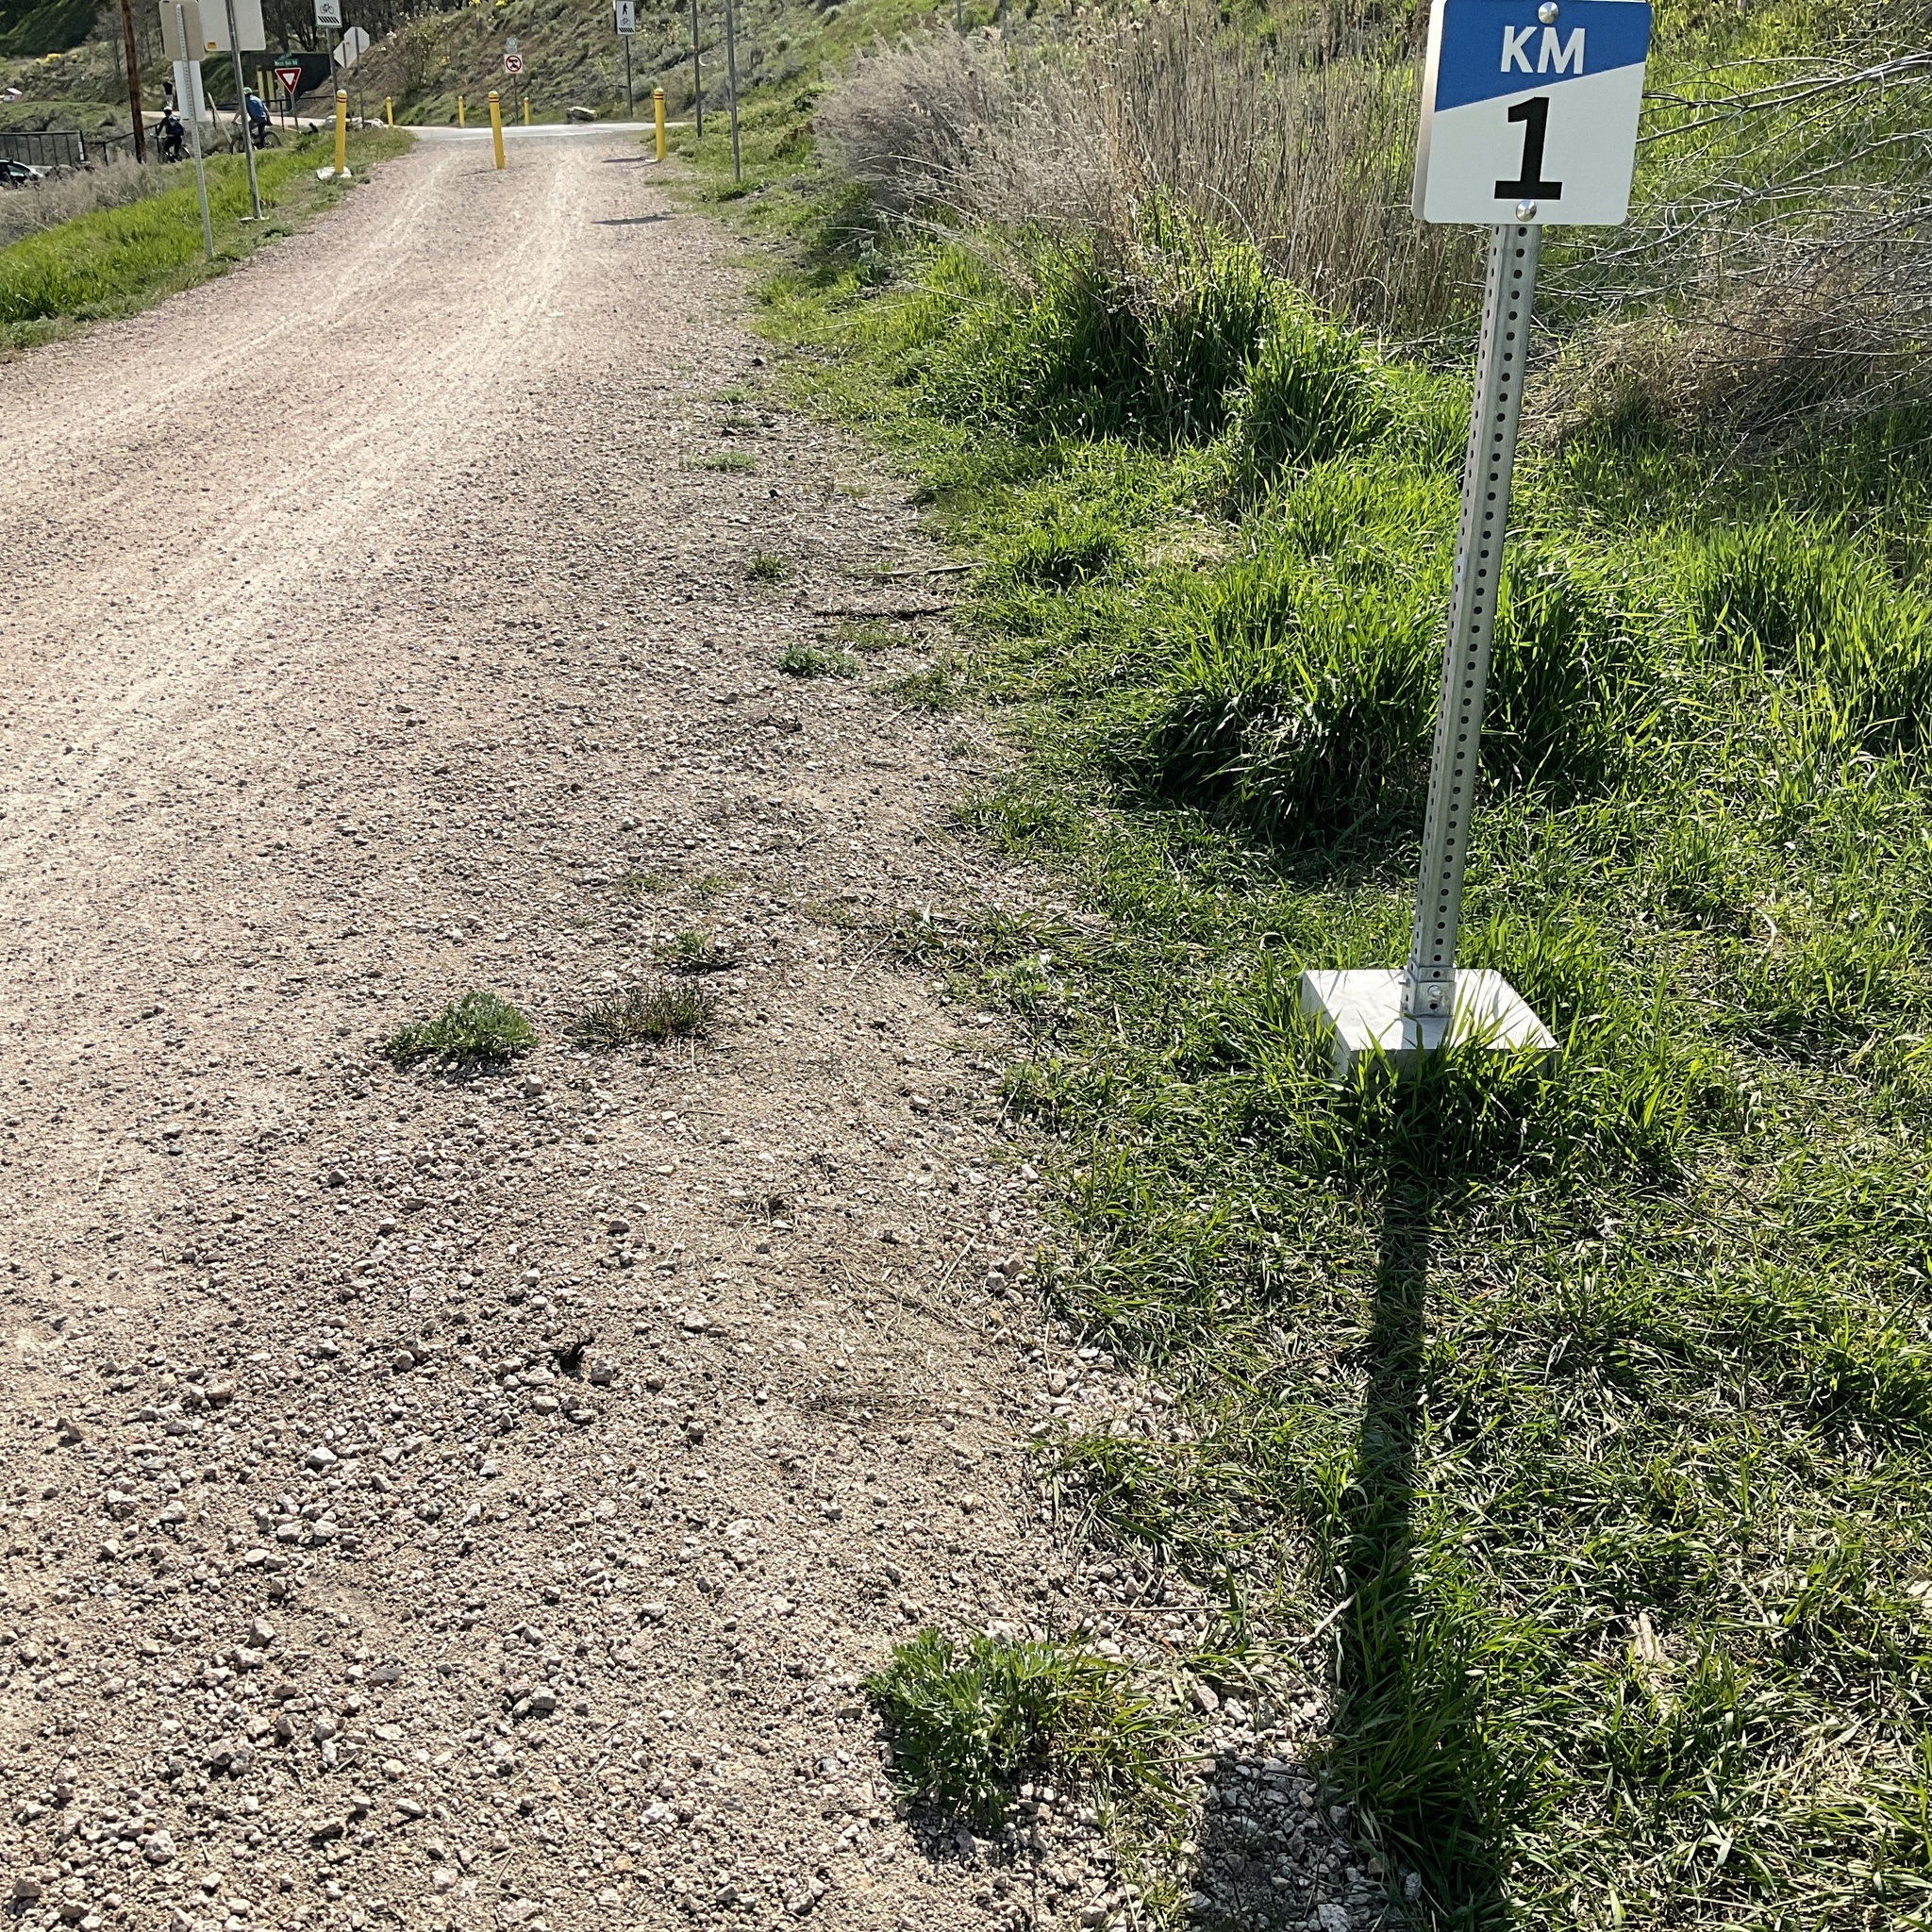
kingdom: Plantae
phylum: Tracheophyta
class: Magnoliopsida
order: Asterales
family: Asteraceae
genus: Artemisia
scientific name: Artemisia absinthium
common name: Wormwood
